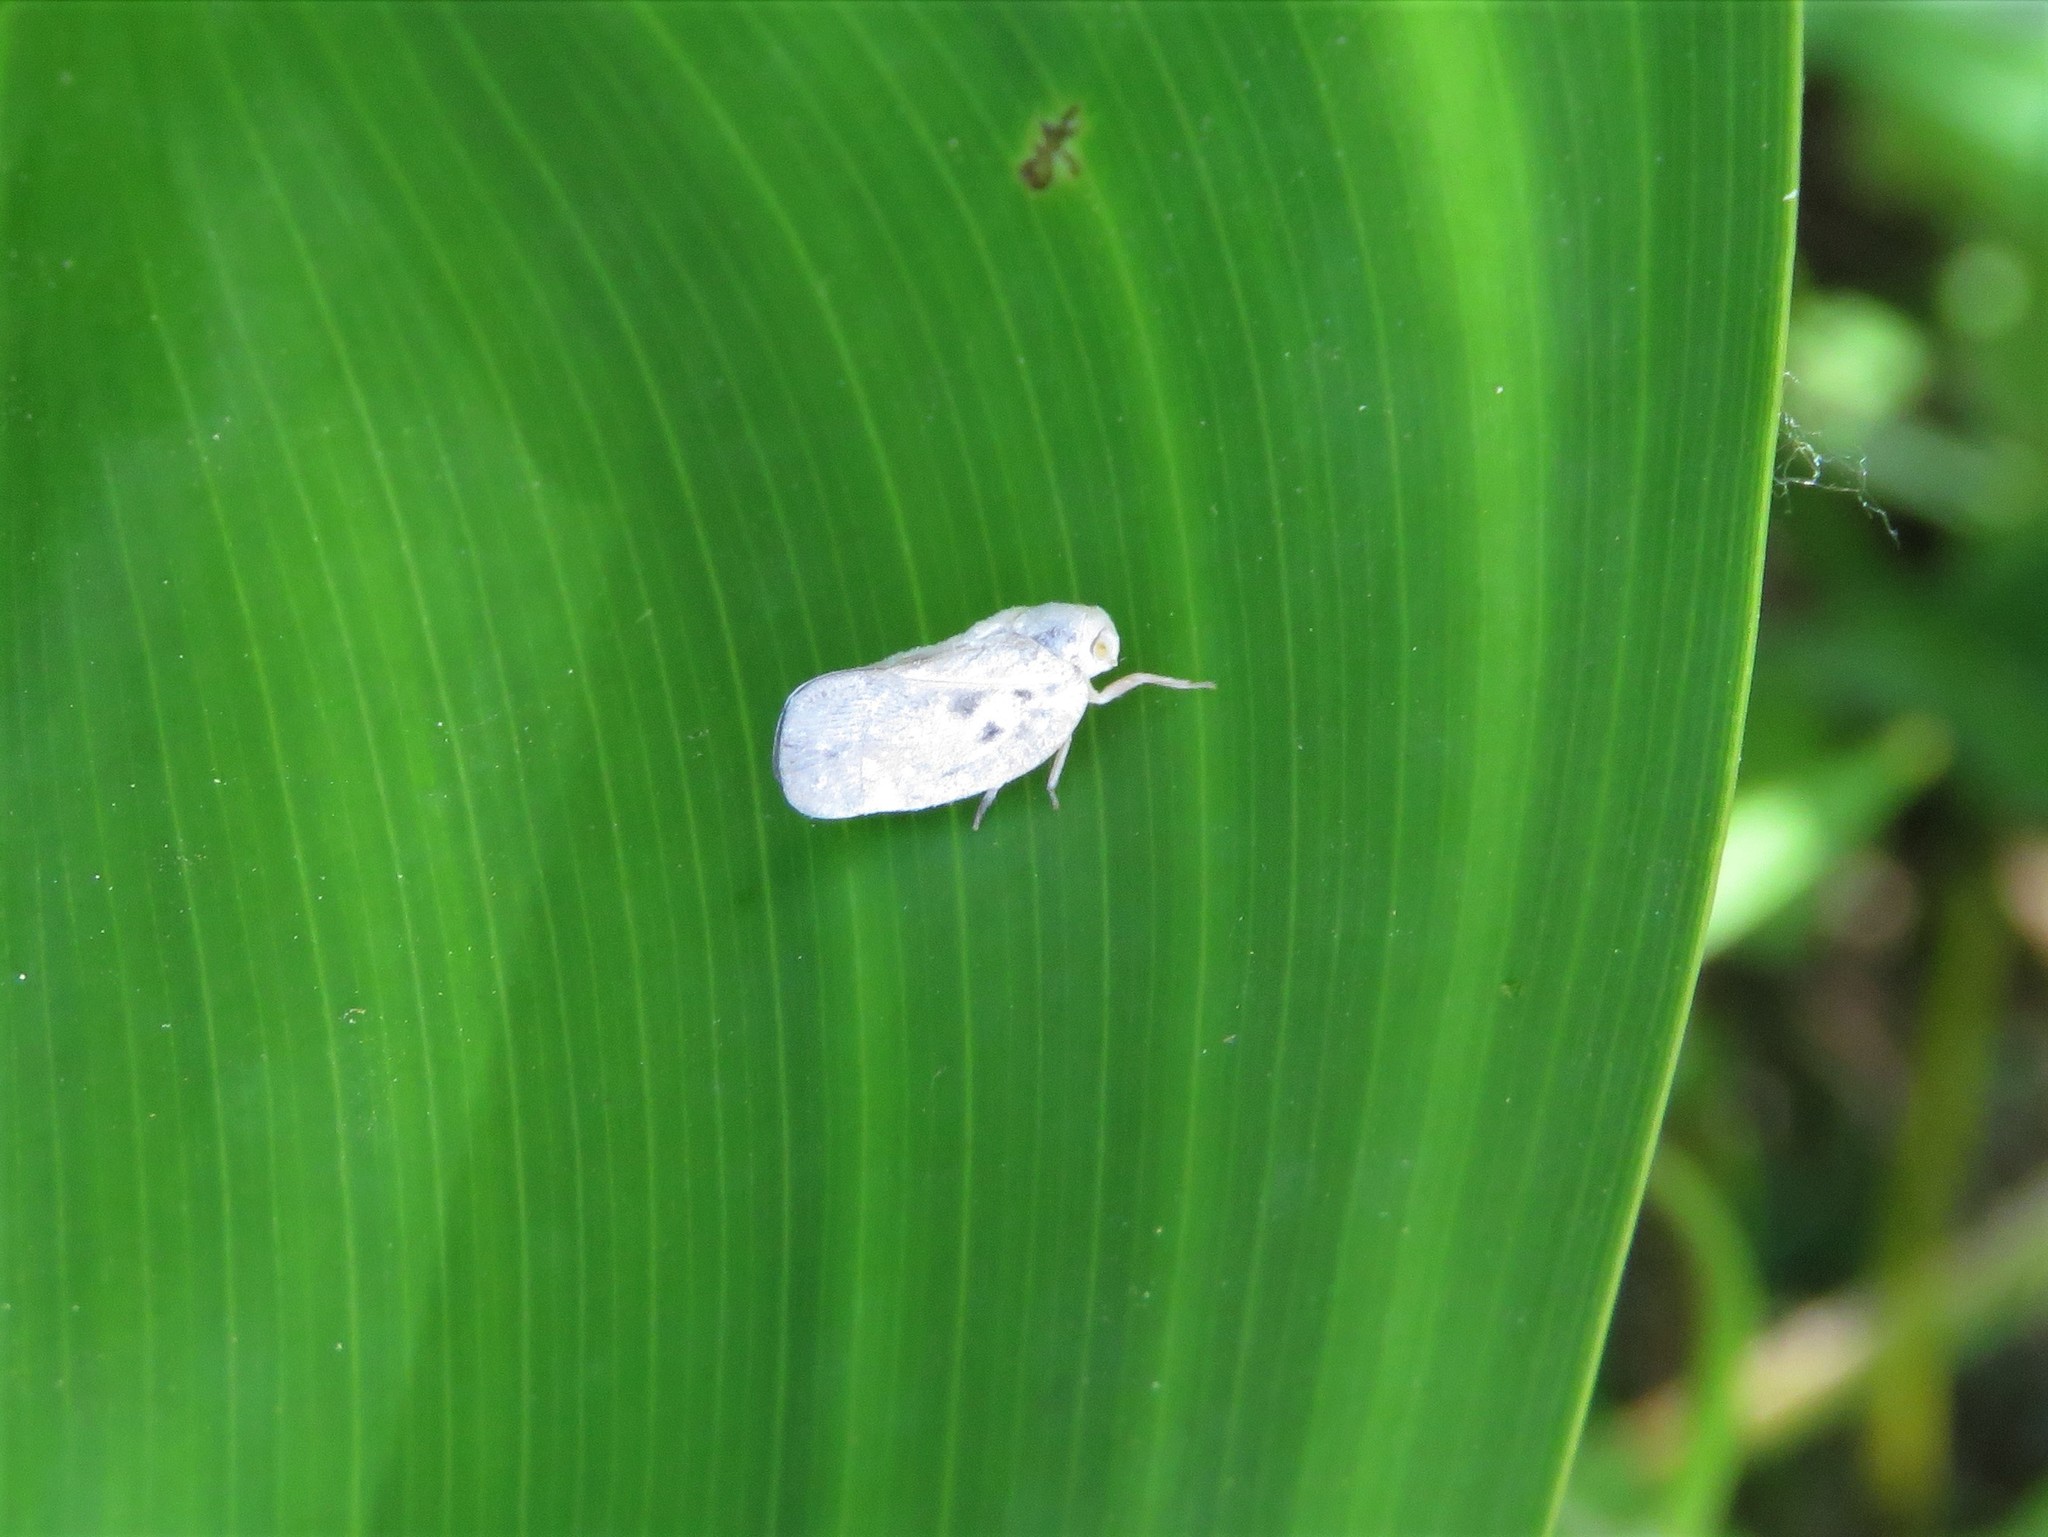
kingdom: Animalia
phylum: Arthropoda
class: Insecta
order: Hemiptera
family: Flatidae
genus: Metcalfa
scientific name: Metcalfa pruinosa
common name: Citrus flatid planthopper
